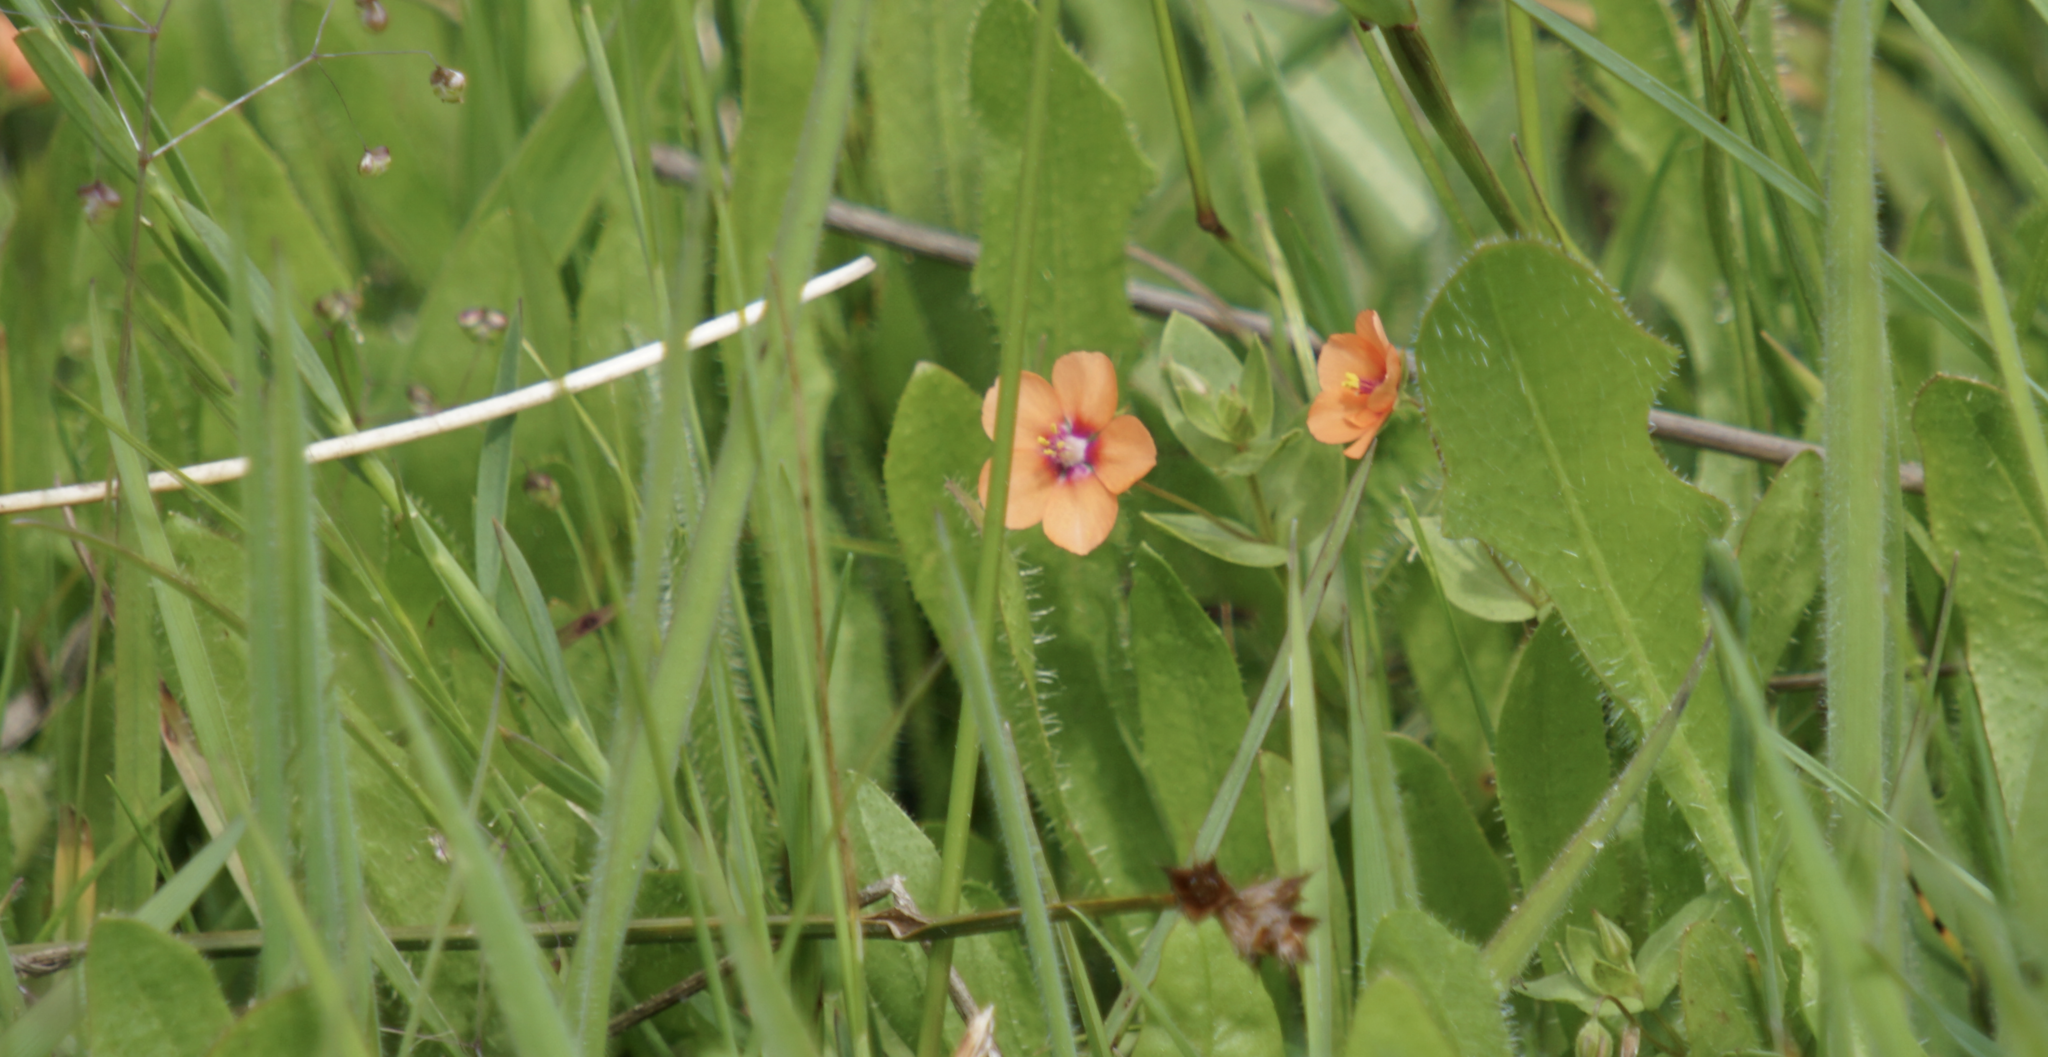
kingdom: Plantae
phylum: Tracheophyta
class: Magnoliopsida
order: Ericales
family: Primulaceae
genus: Lysimachia
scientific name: Lysimachia arvensis
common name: Scarlet pimpernel
